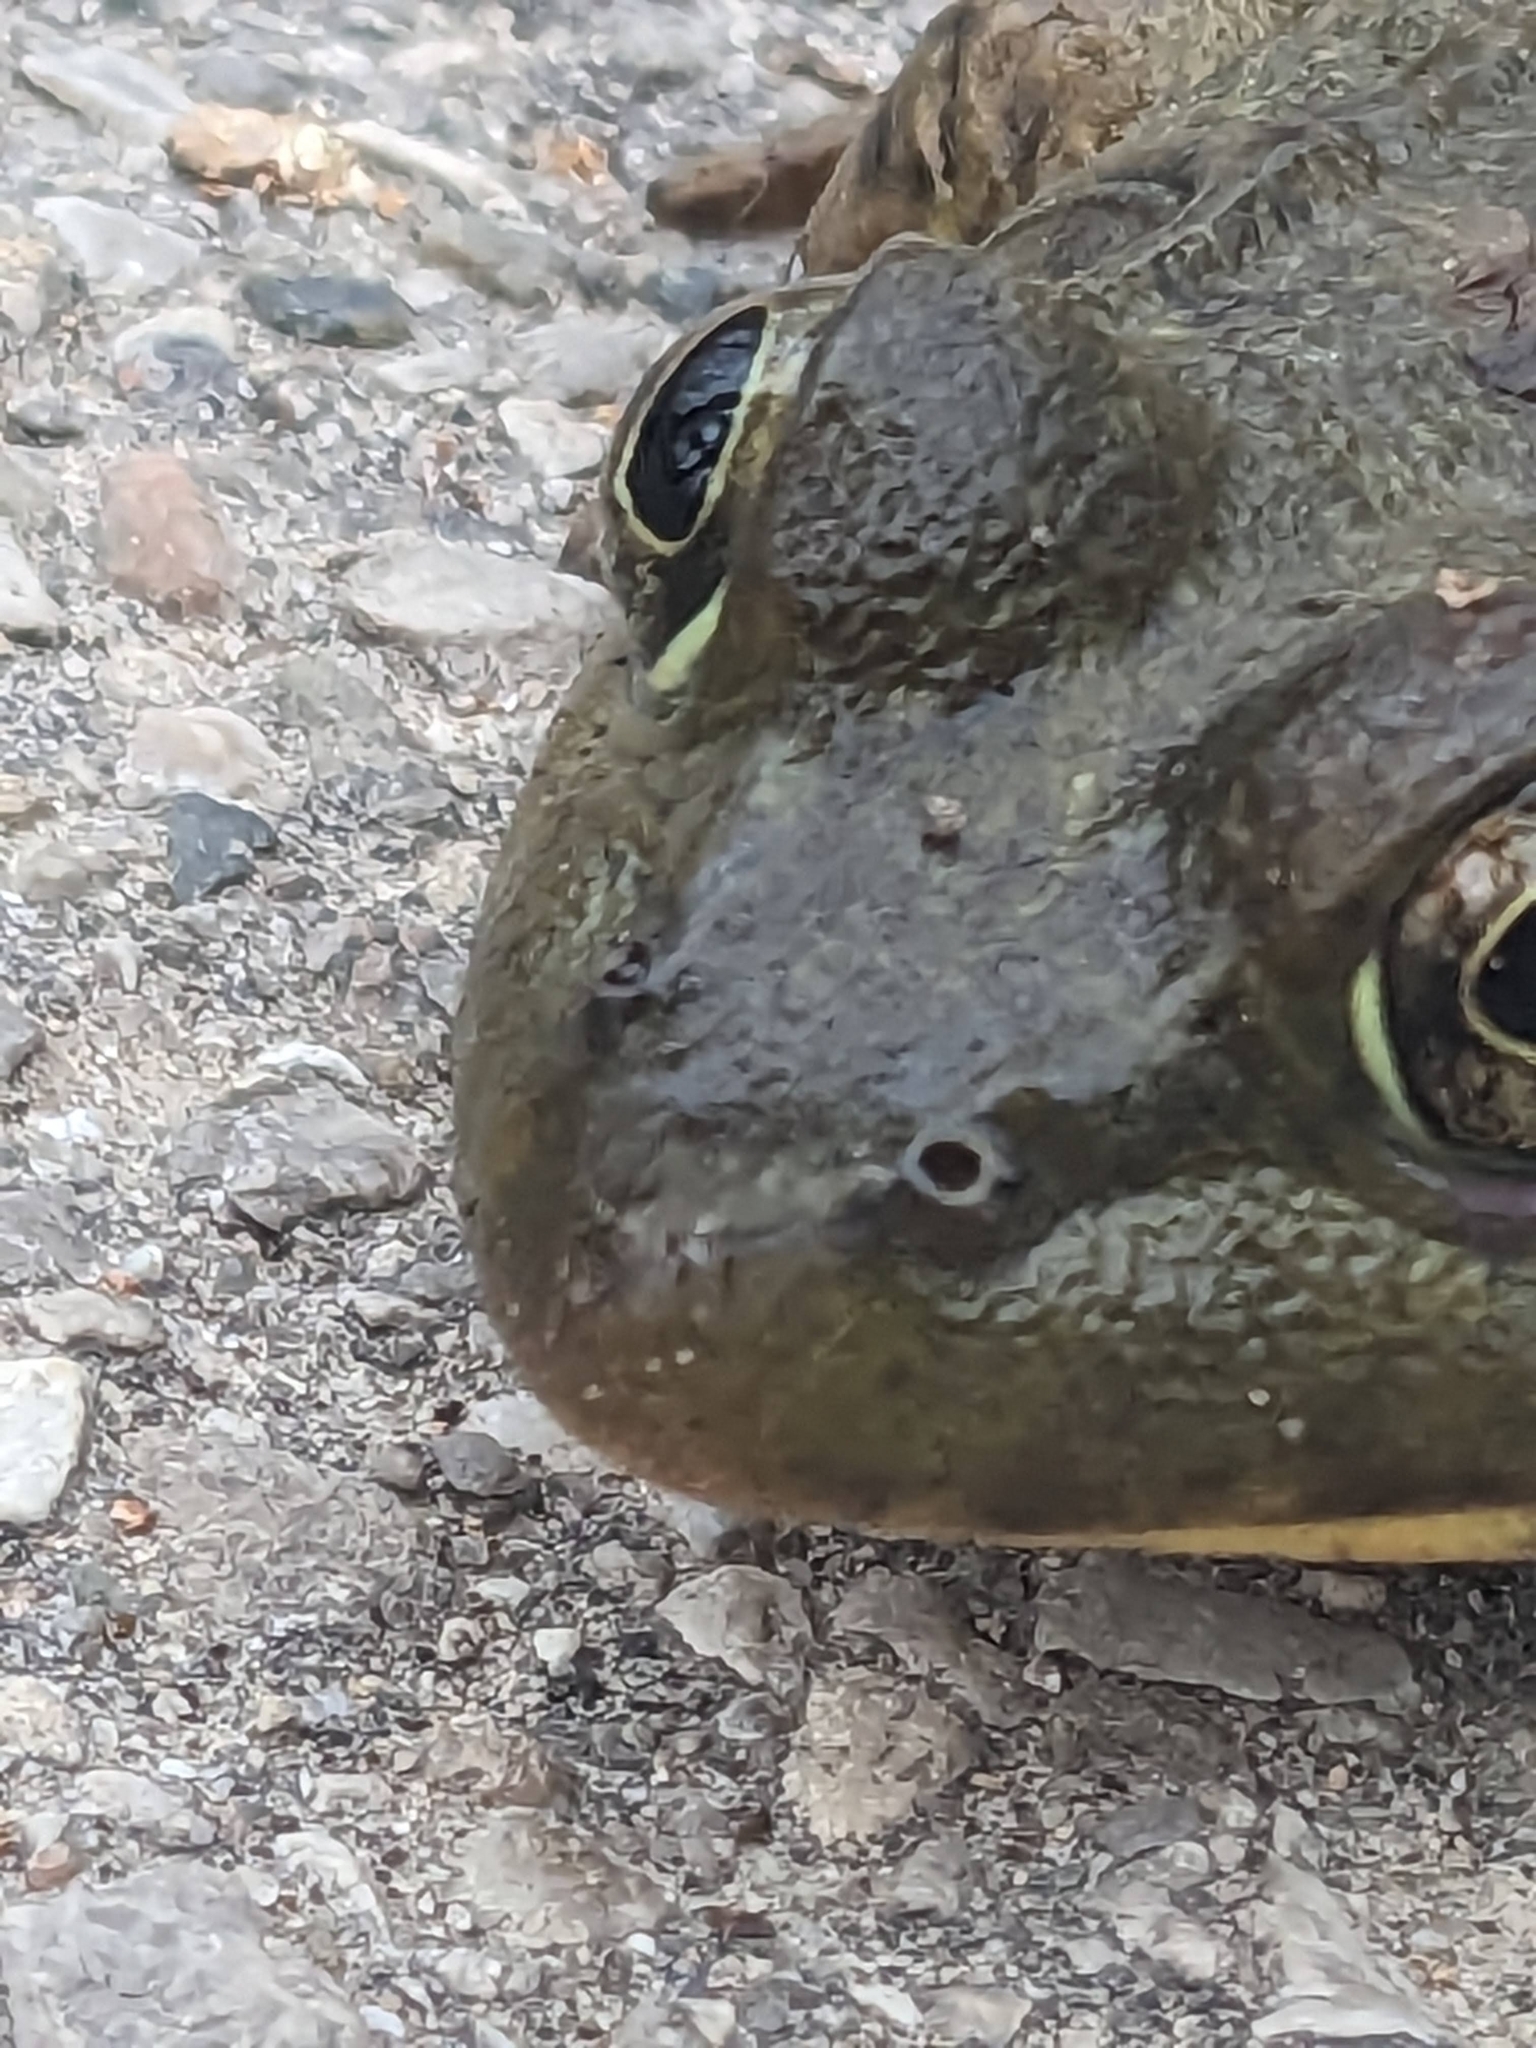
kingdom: Animalia
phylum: Chordata
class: Amphibia
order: Anura
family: Ranidae
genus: Lithobates
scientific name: Lithobates clamitans
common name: Green frog
